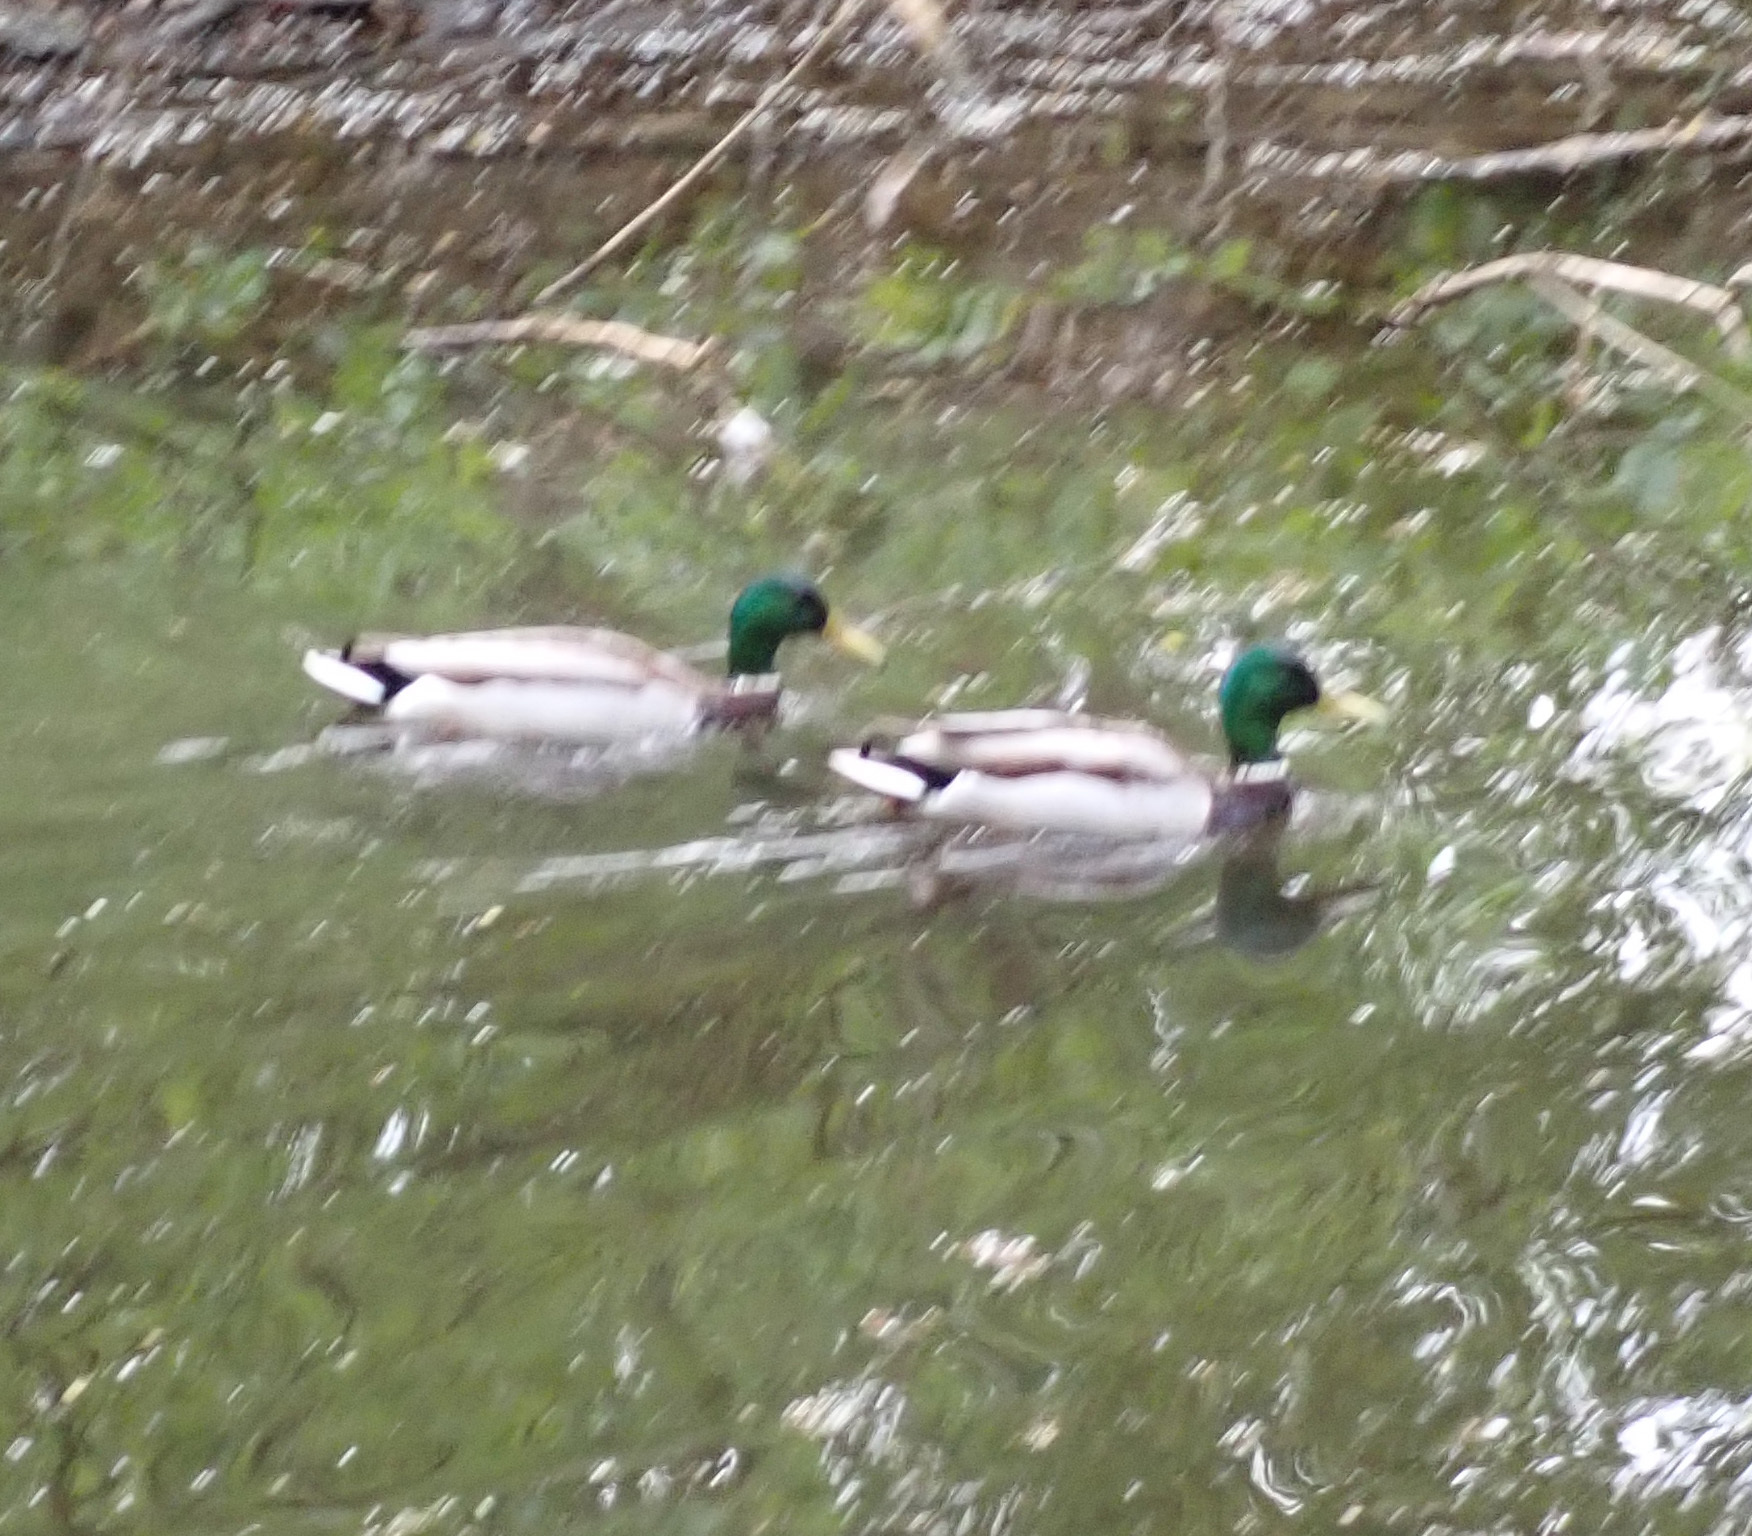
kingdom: Animalia
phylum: Chordata
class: Aves
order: Anseriformes
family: Anatidae
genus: Anas
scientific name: Anas platyrhynchos
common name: Mallard
